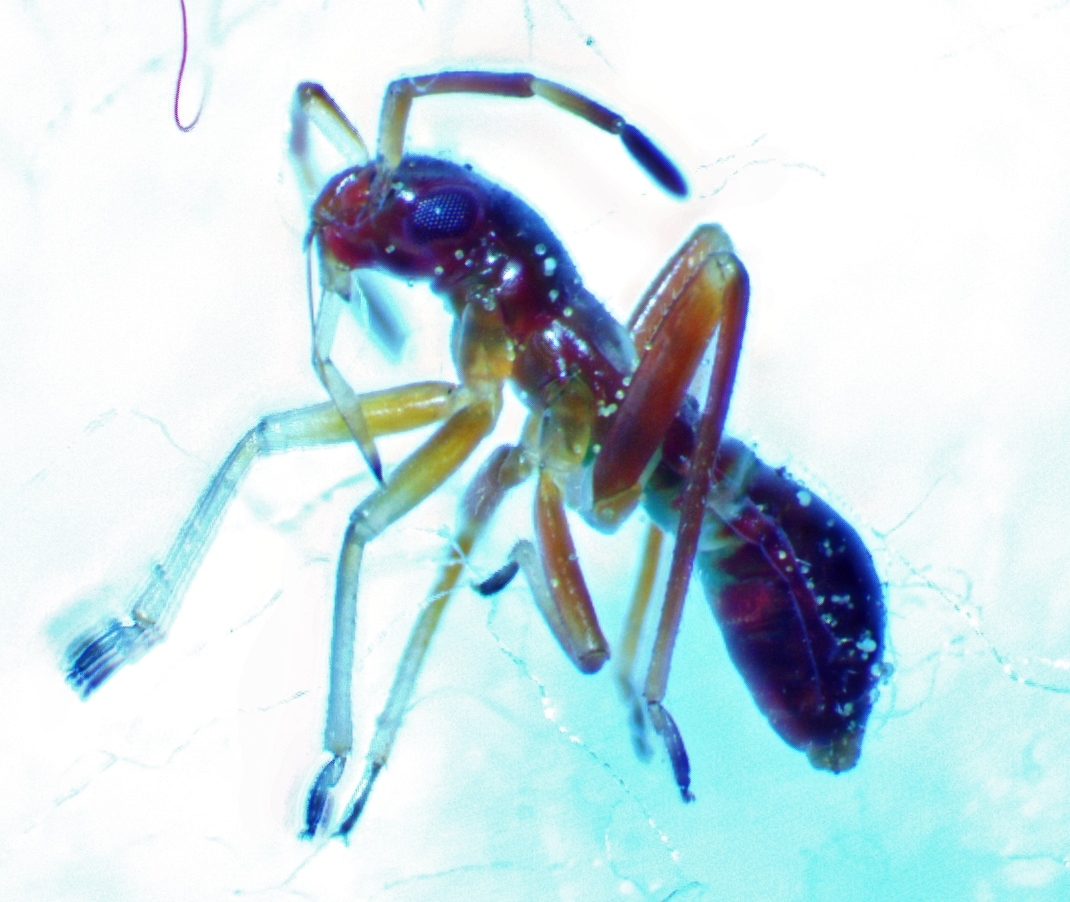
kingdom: Animalia
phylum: Arthropoda
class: Insecta
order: Hemiptera
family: Miridae
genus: Pseudoxenetus
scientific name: Pseudoxenetus regalis
